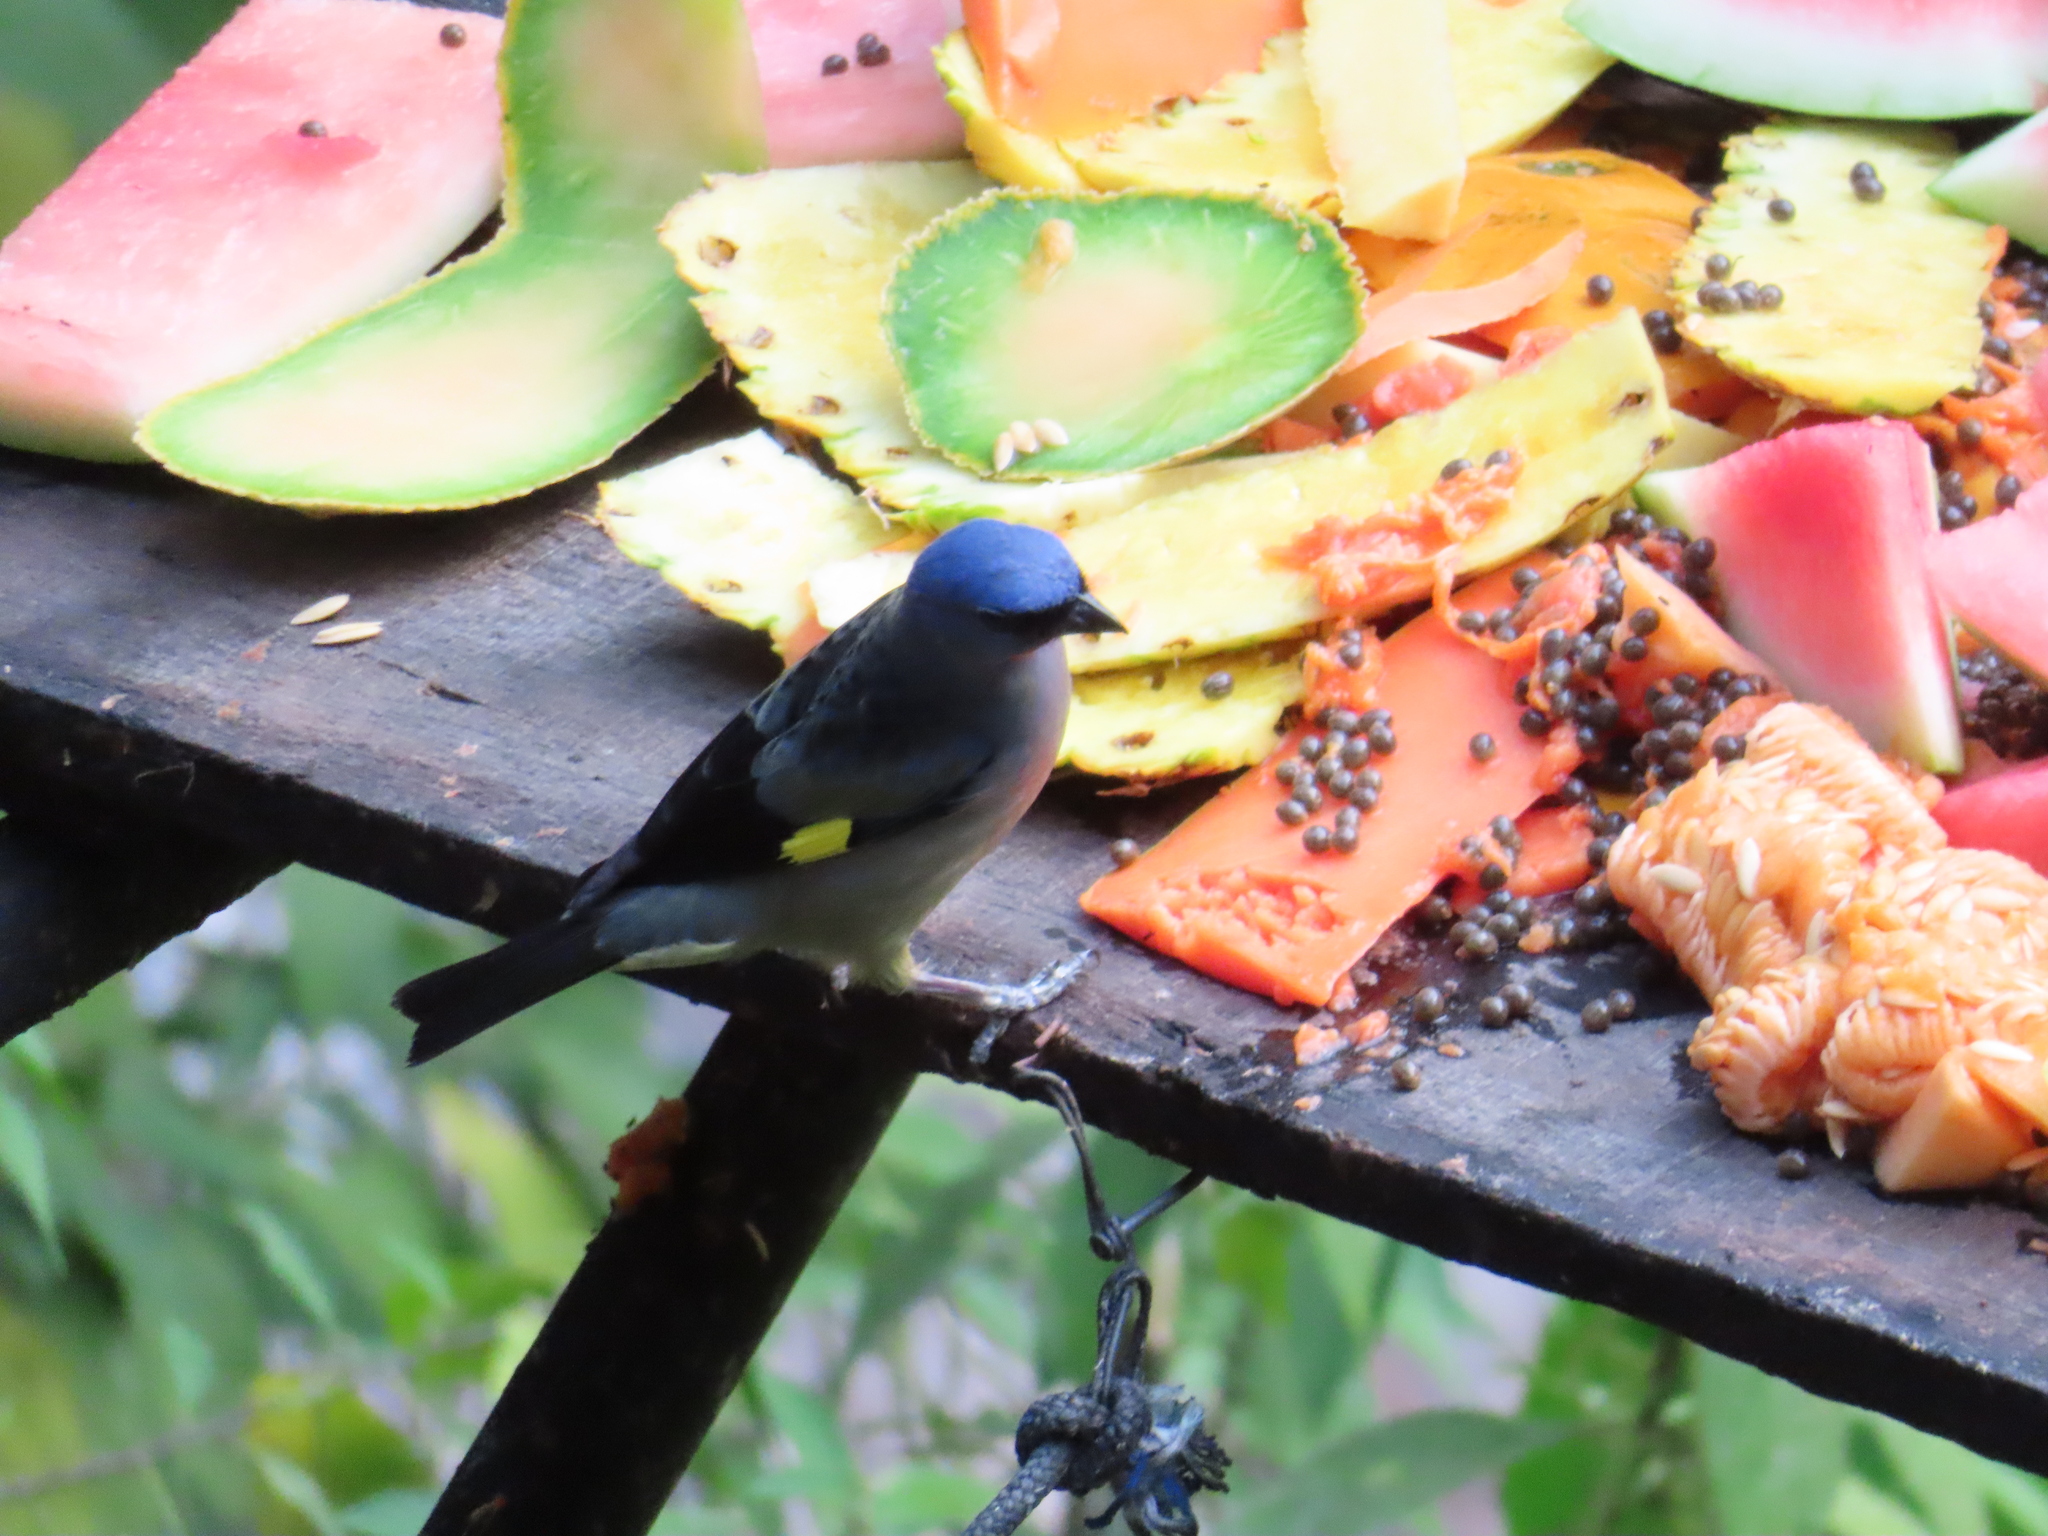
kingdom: Animalia
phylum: Chordata
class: Aves
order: Passeriformes
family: Thraupidae
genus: Thraupis
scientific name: Thraupis abbas
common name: Yellow-winged tanager
